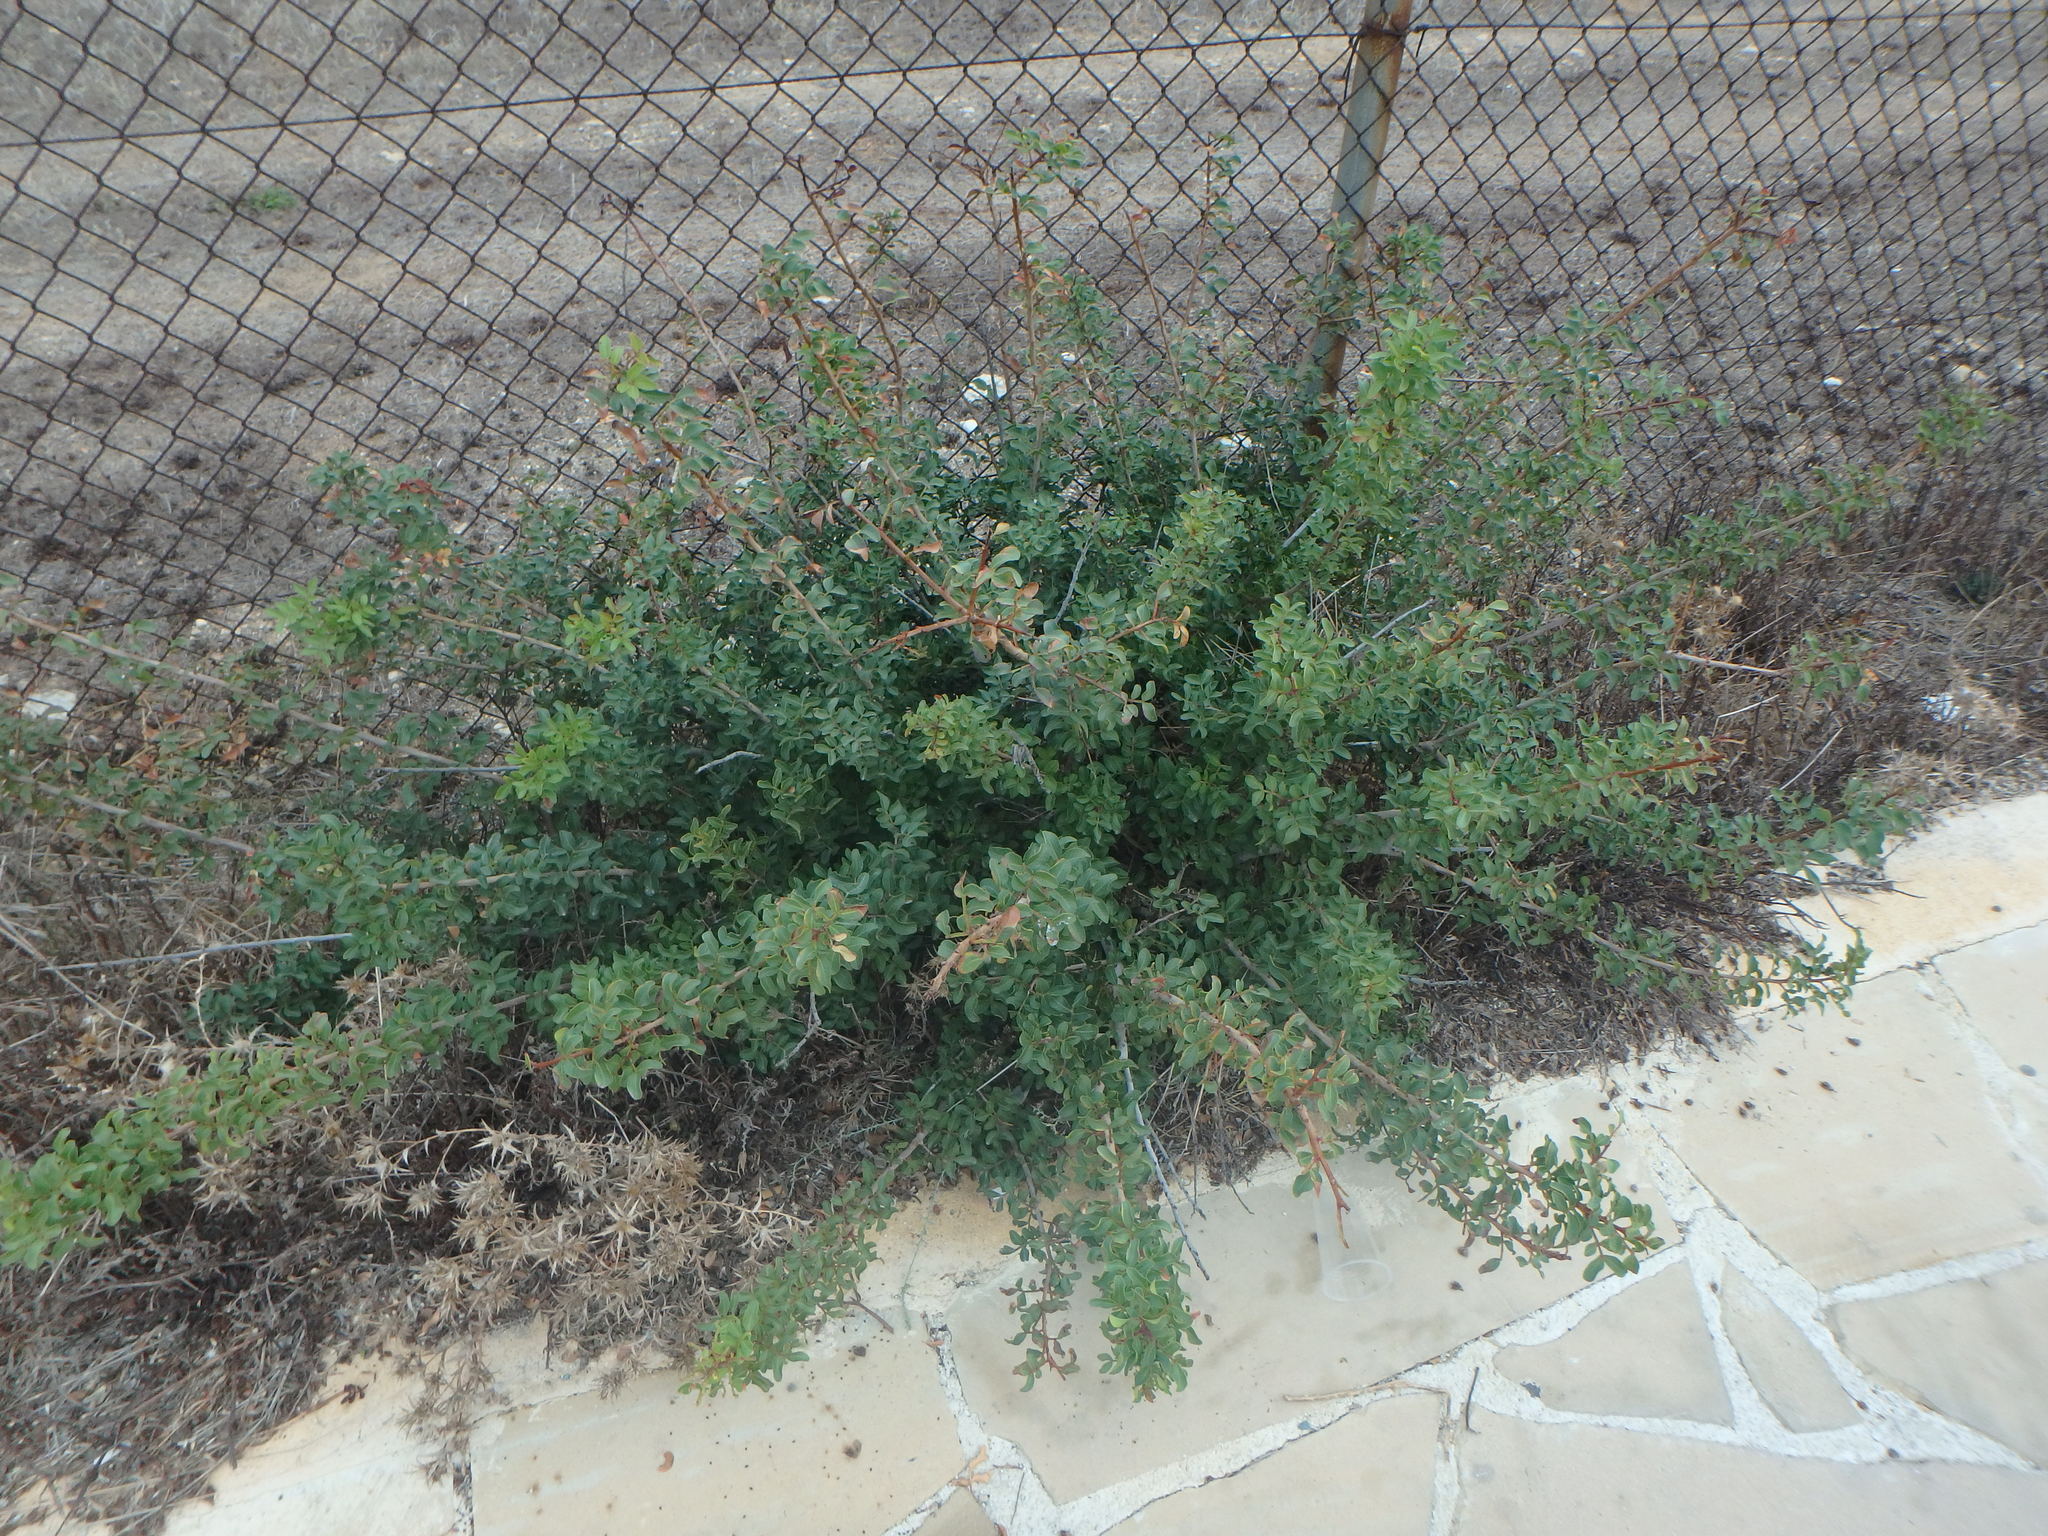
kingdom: Plantae
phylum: Tracheophyta
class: Magnoliopsida
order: Sapindales
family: Anacardiaceae
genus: Pistacia
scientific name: Pistacia lentiscus
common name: Lentisk
